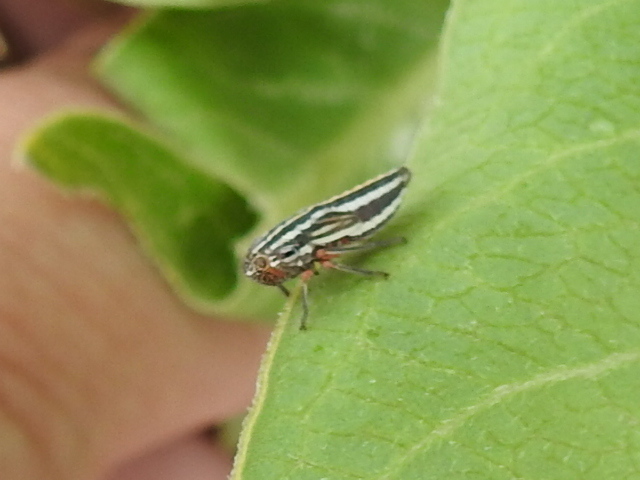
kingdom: Animalia
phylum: Arthropoda
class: Insecta
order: Hemiptera
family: Cicadellidae
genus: Cuerna
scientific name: Cuerna costalis
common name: Lateral-lined sharpshooter
